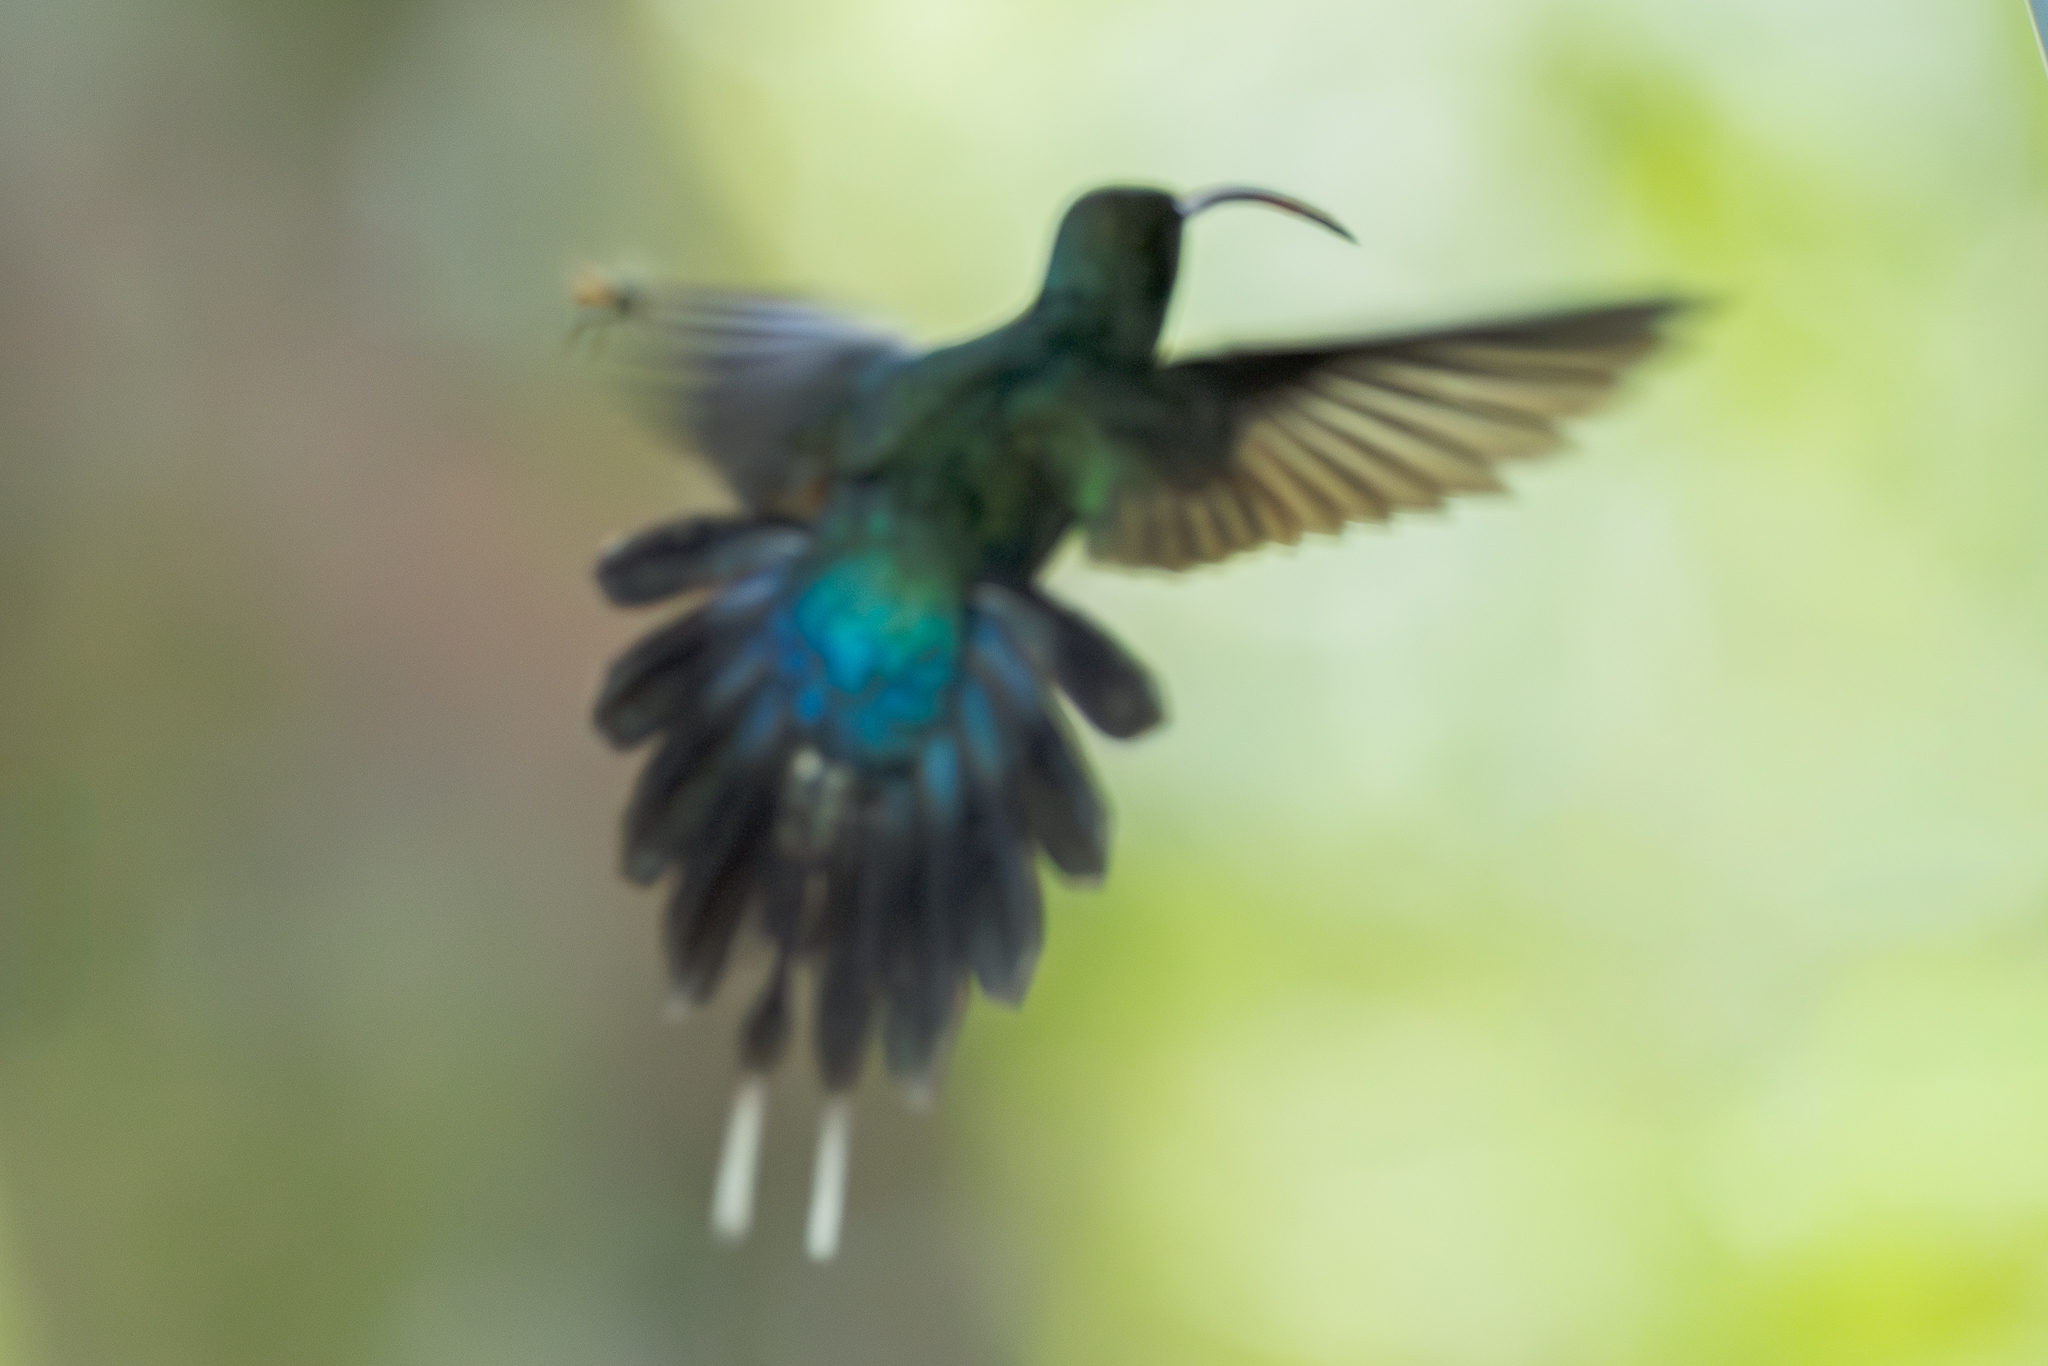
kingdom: Animalia
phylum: Chordata
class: Aves
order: Apodiformes
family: Trochilidae
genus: Phaethornis
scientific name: Phaethornis guy
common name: Green hermit
